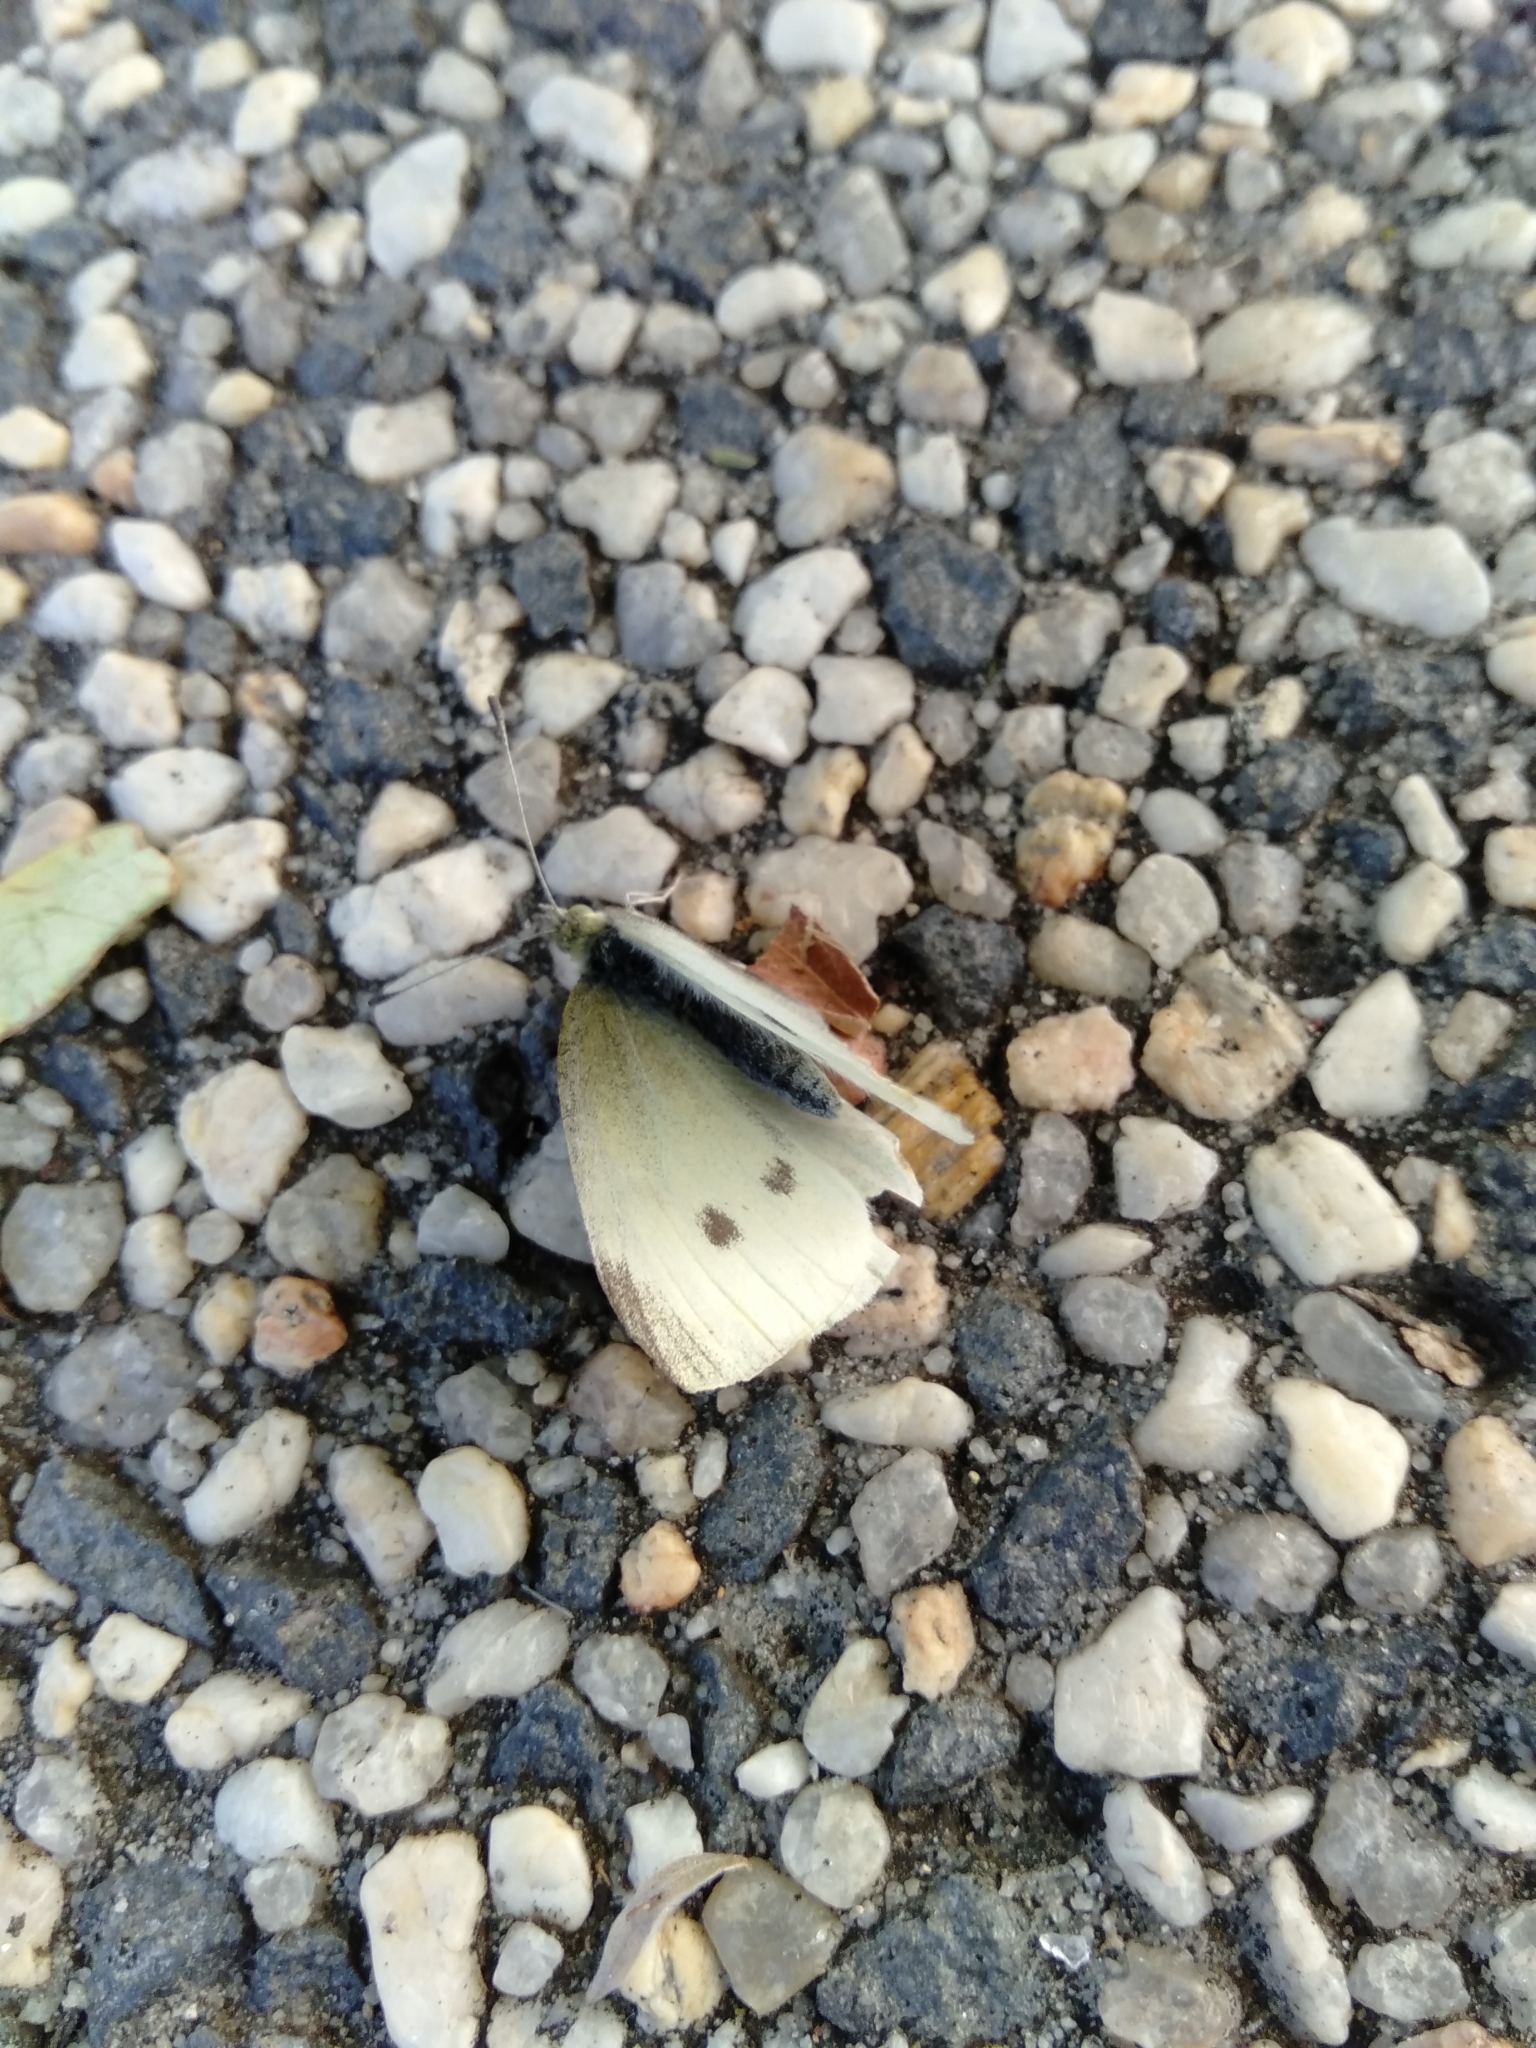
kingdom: Animalia
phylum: Arthropoda
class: Insecta
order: Lepidoptera
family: Pieridae
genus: Pieris
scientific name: Pieris rapae
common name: Small white
